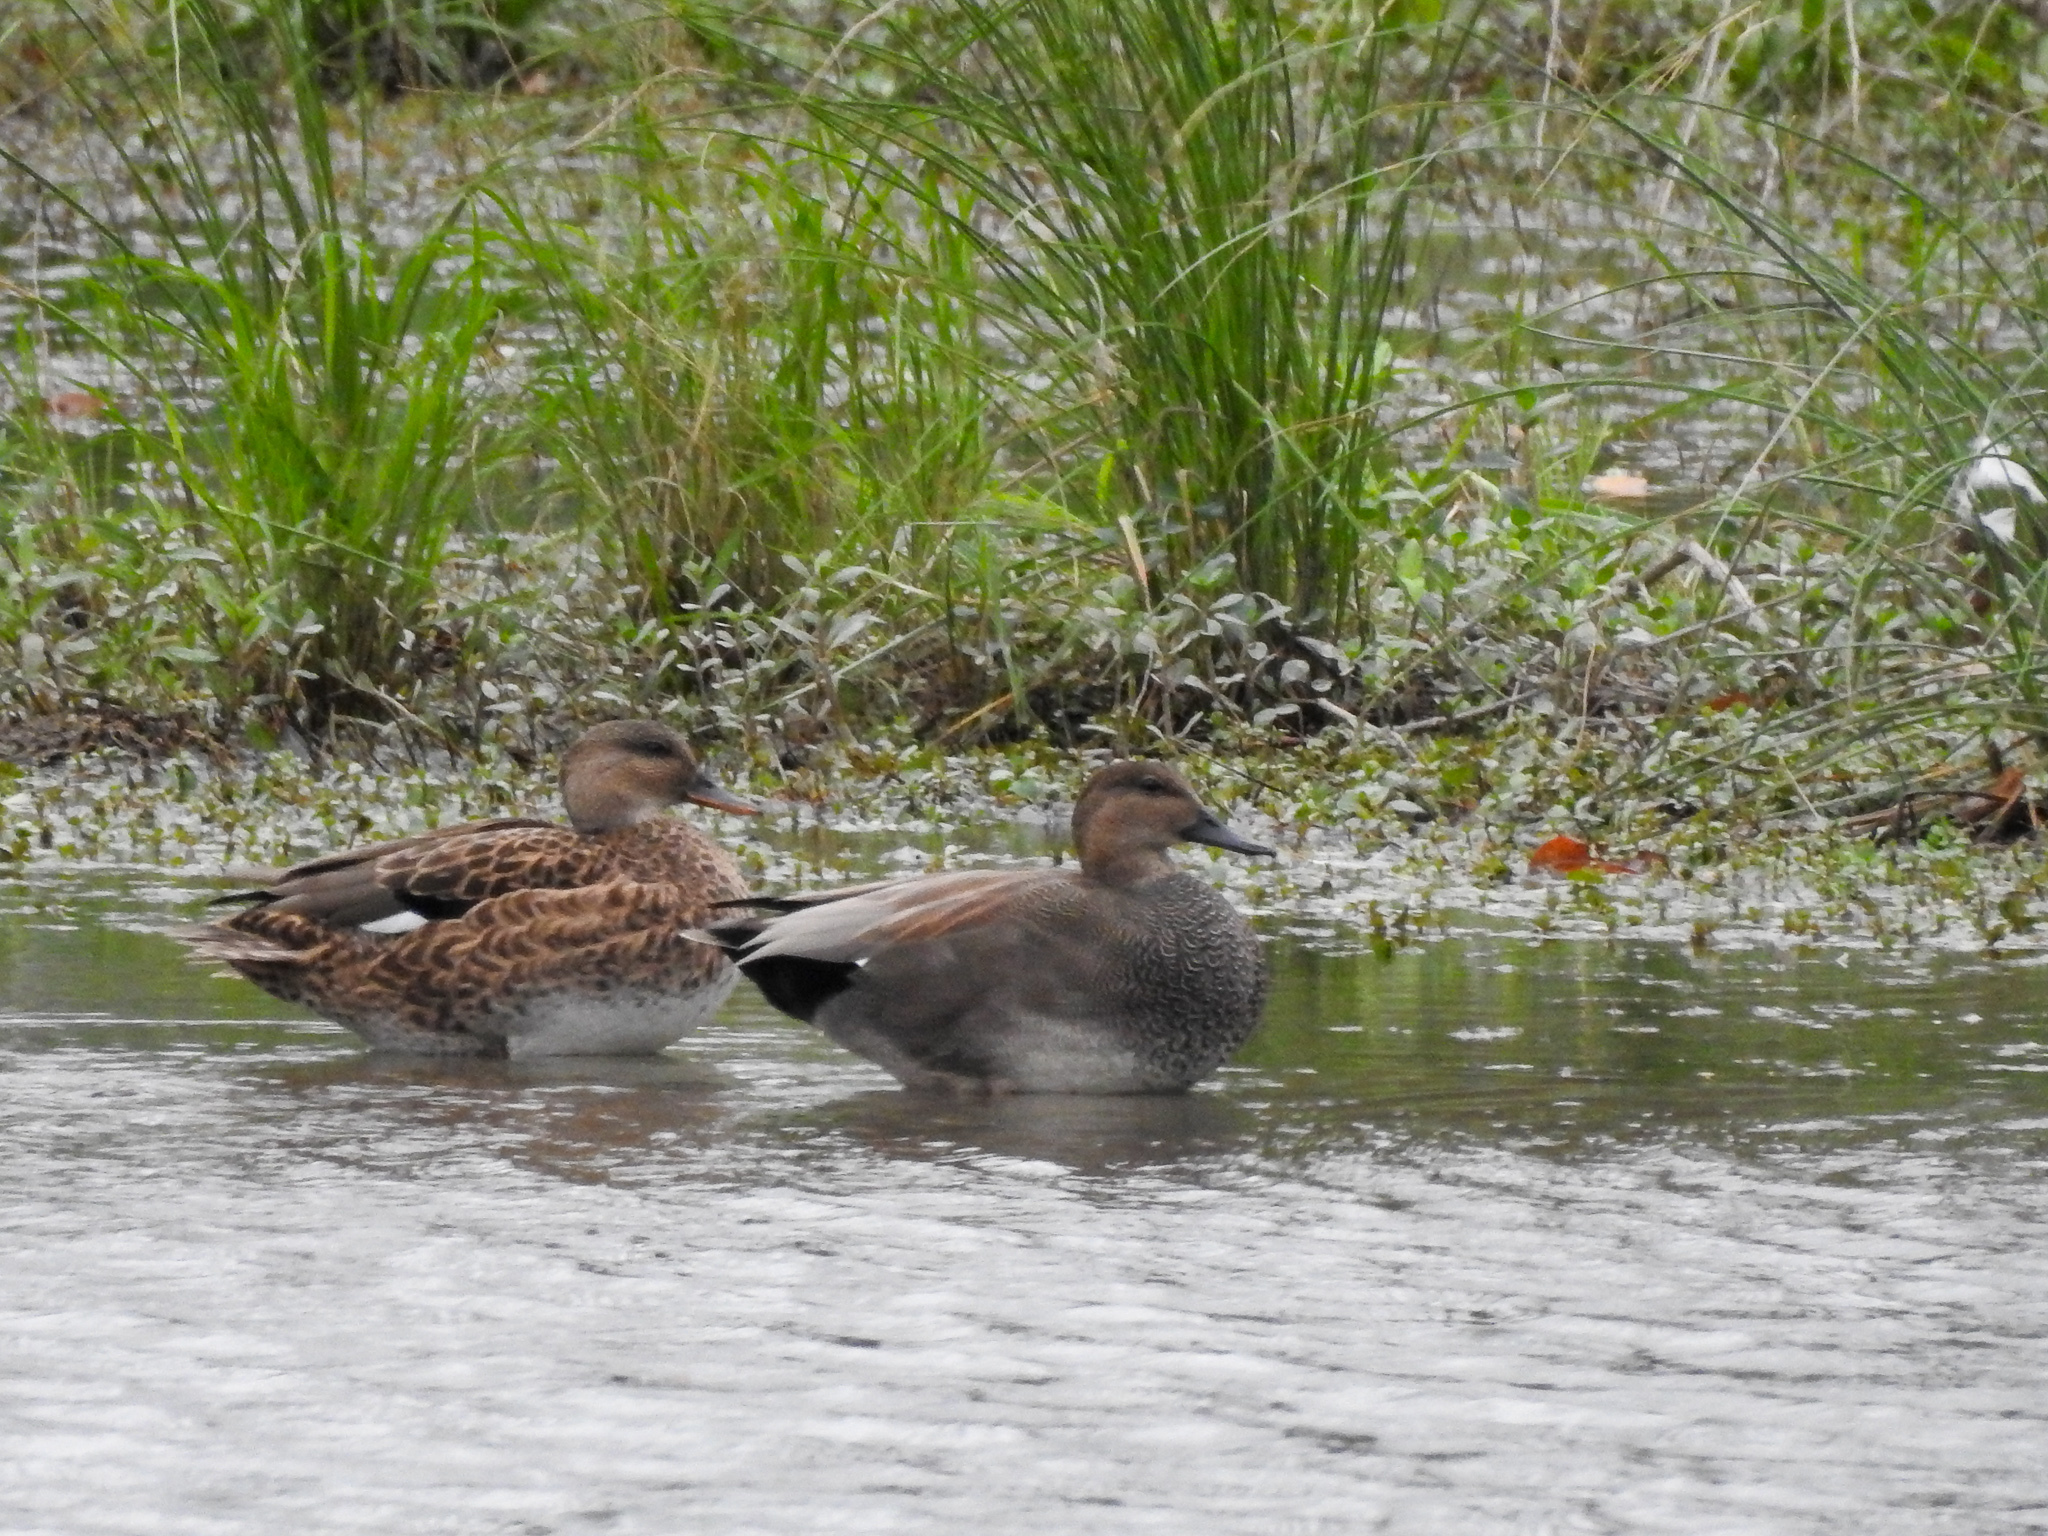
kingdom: Animalia
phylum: Chordata
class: Aves
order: Anseriformes
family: Anatidae
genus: Mareca
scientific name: Mareca strepera
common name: Gadwall
